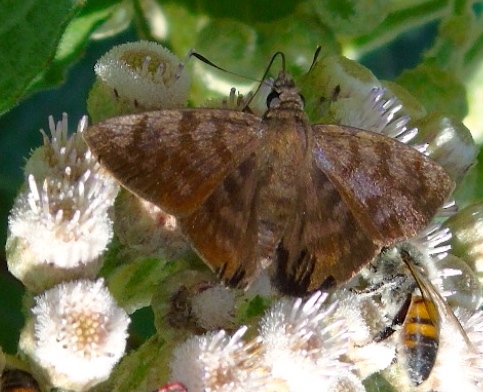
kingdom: Animalia
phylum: Arthropoda
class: Insecta
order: Lepidoptera
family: Hesperiidae
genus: Pellicia
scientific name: Pellicia costimacula
